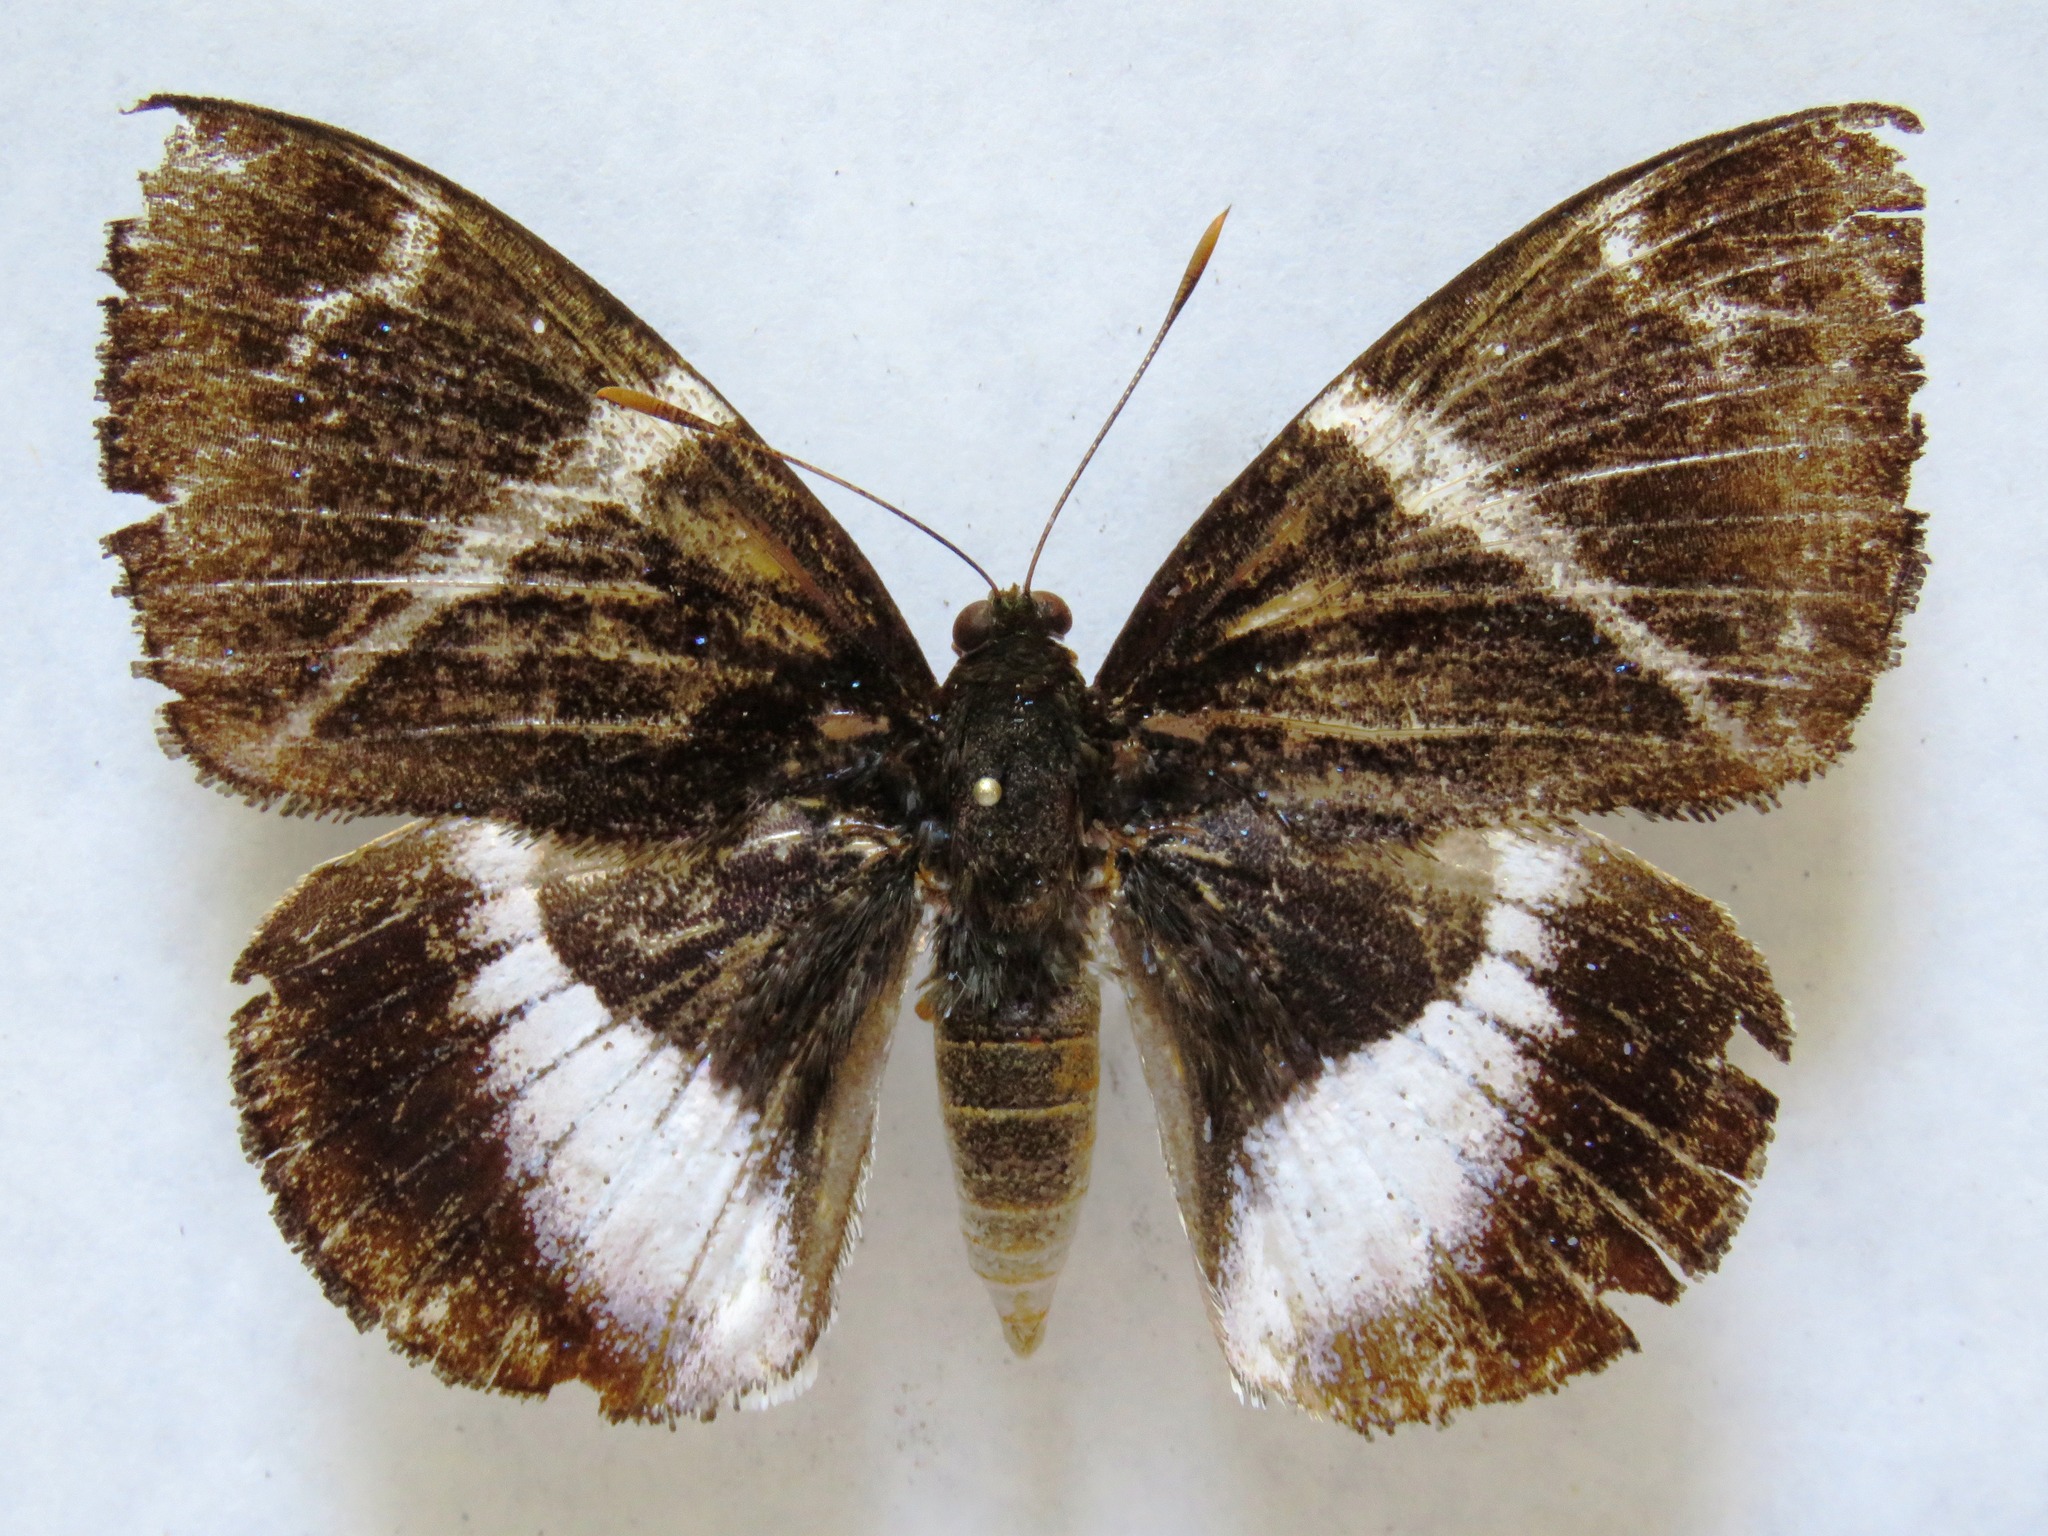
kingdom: Animalia
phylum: Arthropoda
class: Insecta
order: Lepidoptera
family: Castniidae
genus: Castniomera
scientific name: Castniomera atymnius
